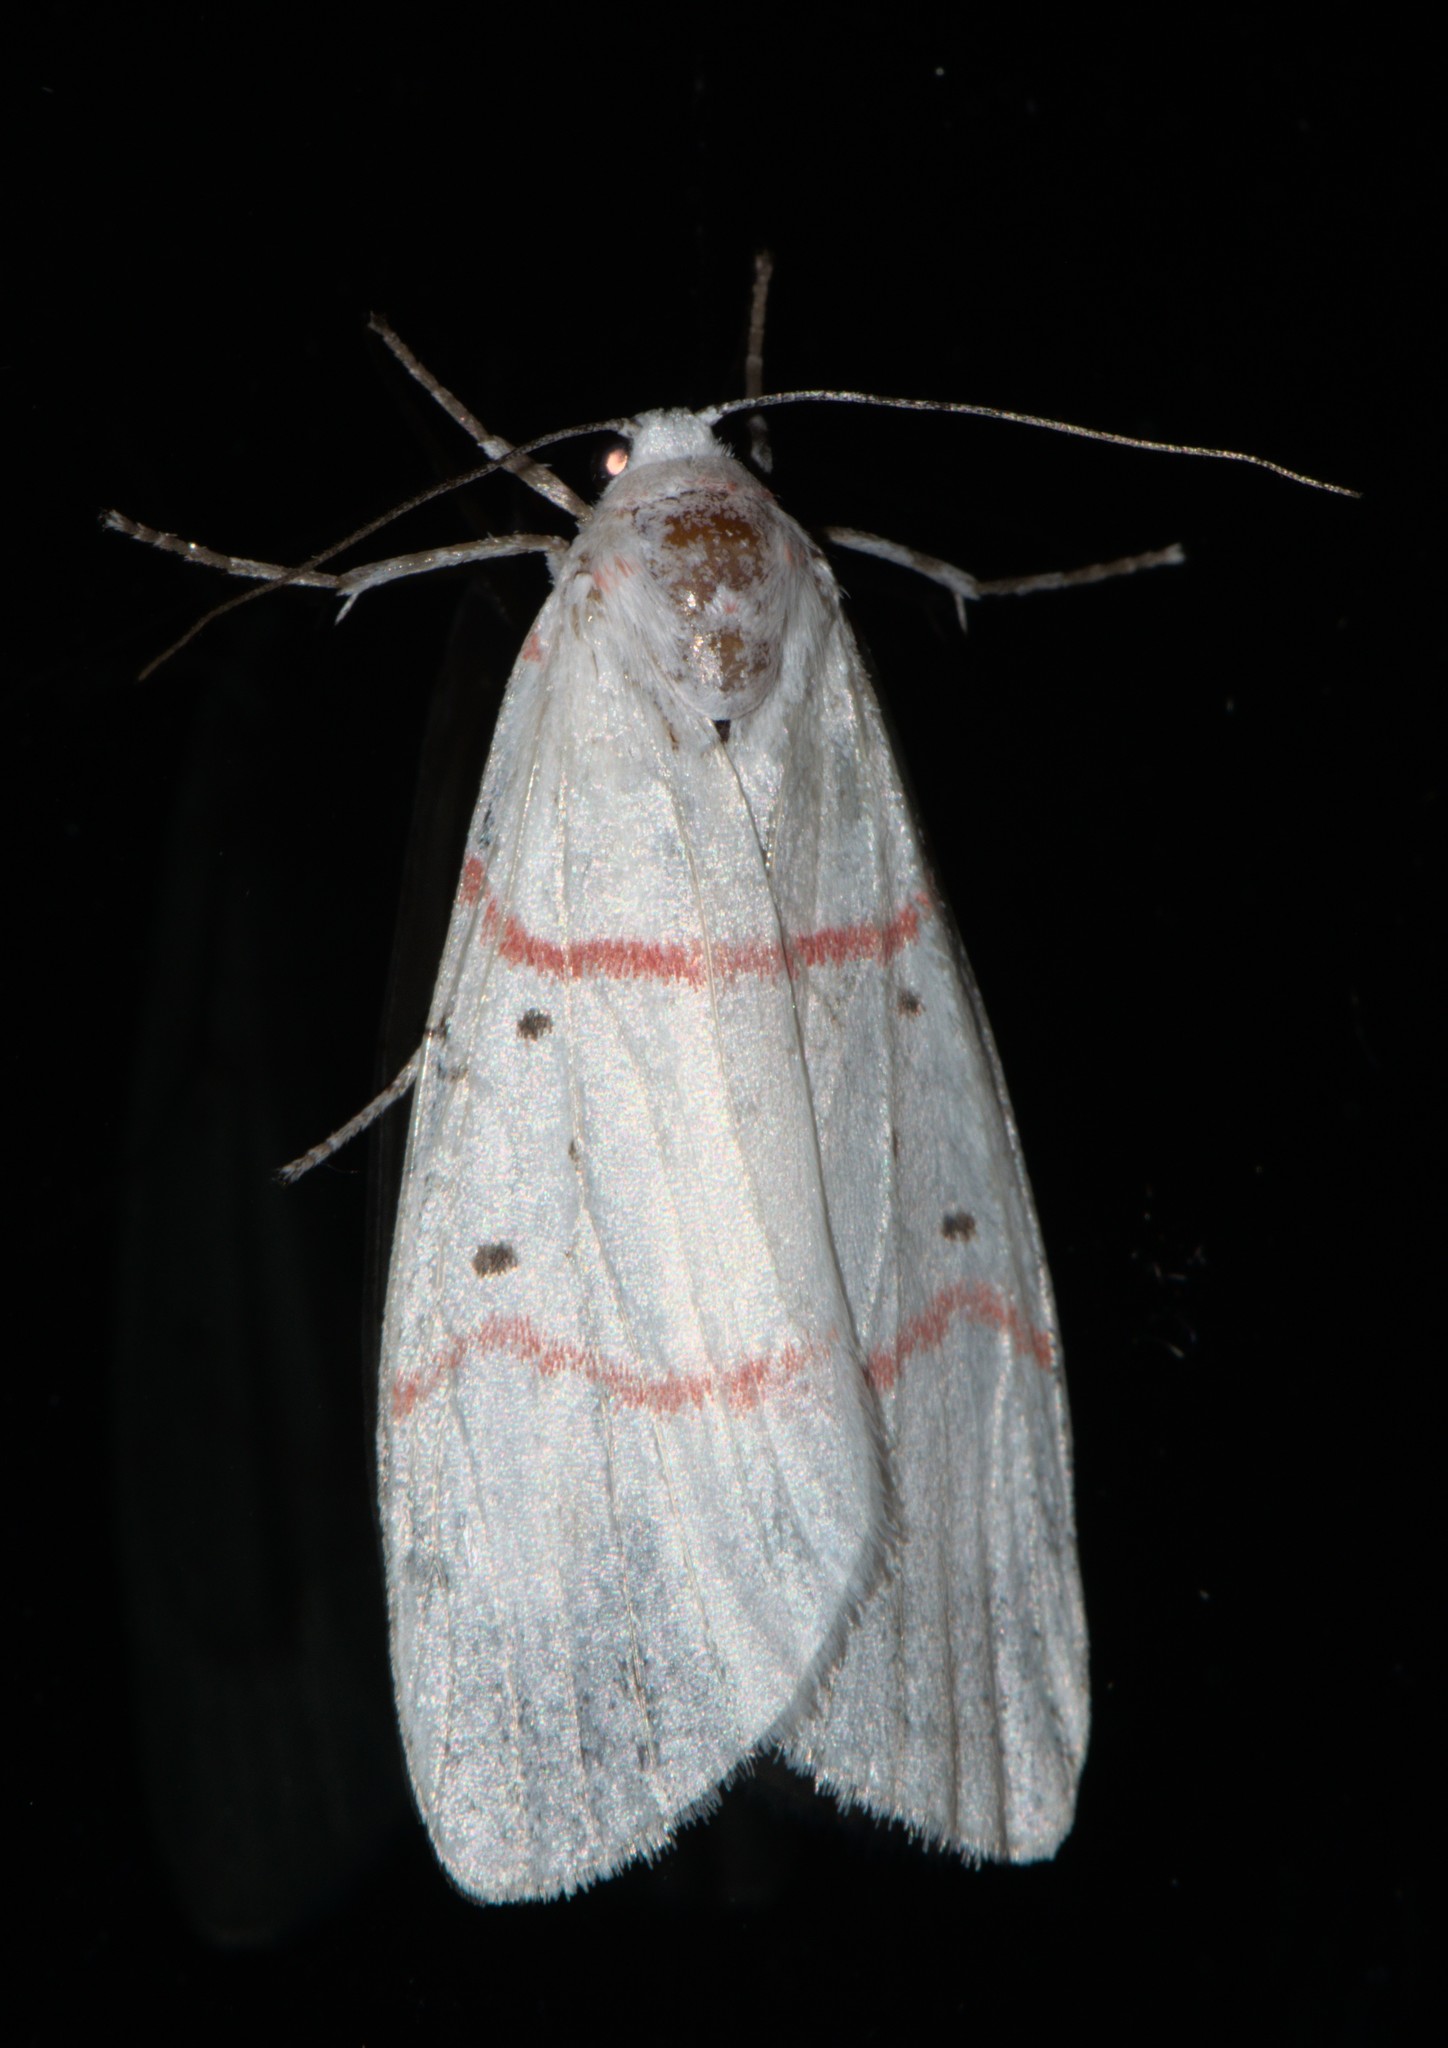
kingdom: Animalia
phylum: Arthropoda
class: Insecta
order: Lepidoptera
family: Erebidae
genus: Cyana
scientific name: Cyana adita
